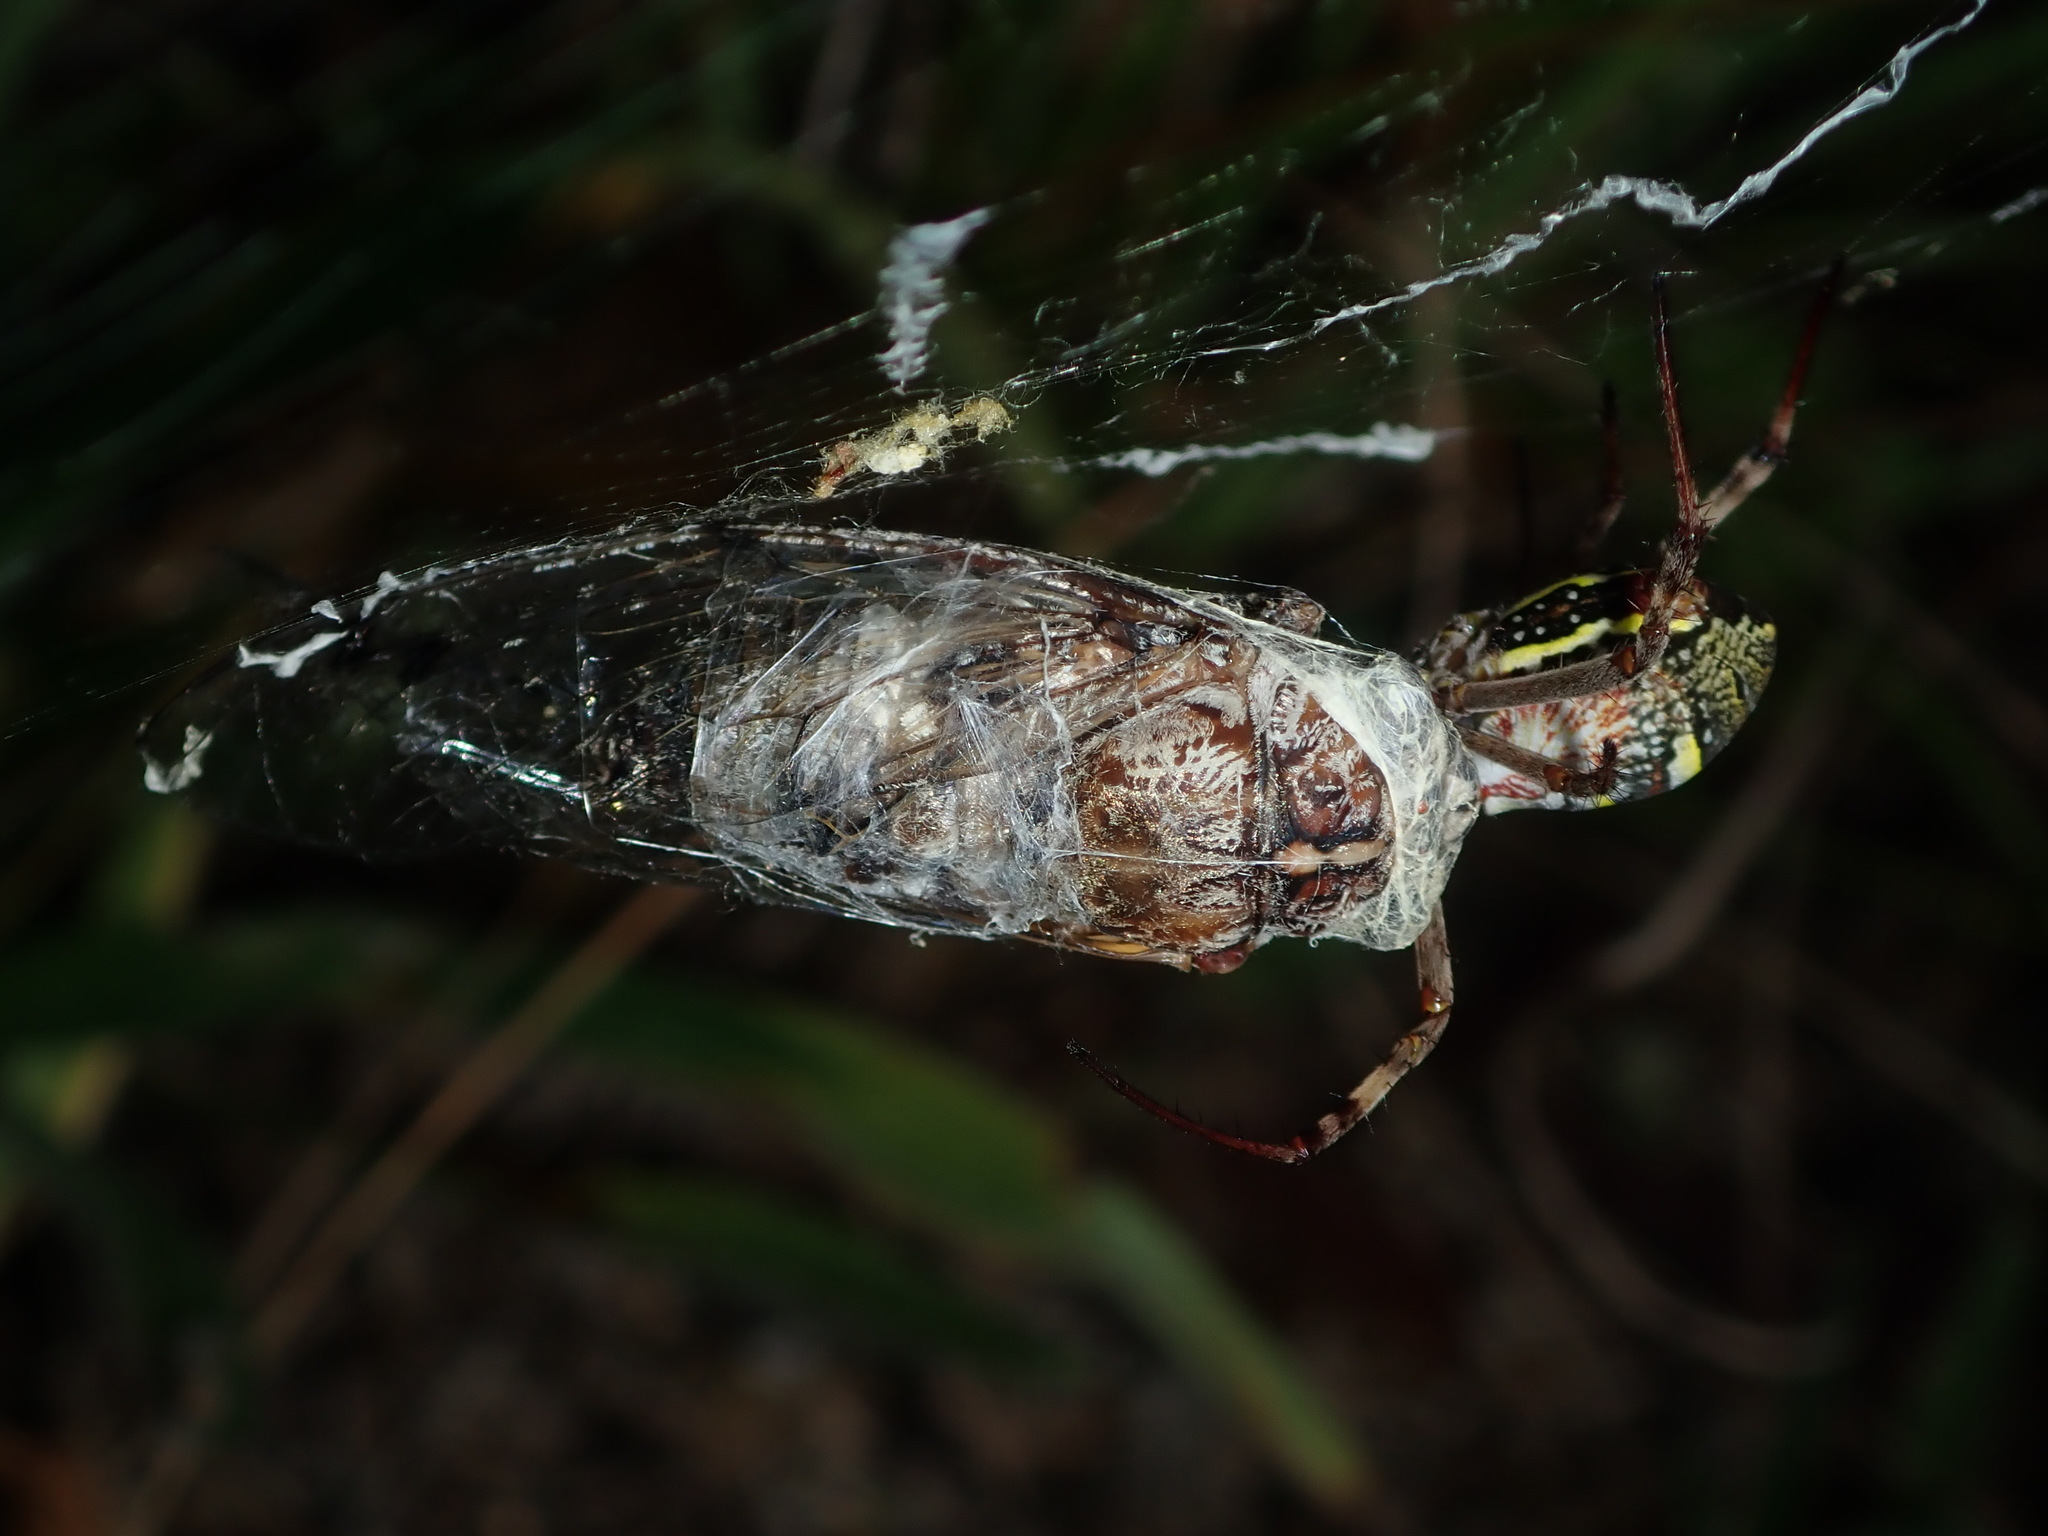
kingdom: Animalia
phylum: Arthropoda
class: Insecta
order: Hemiptera
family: Cicadidae
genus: Aleeta
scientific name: Aleeta curvicosta
